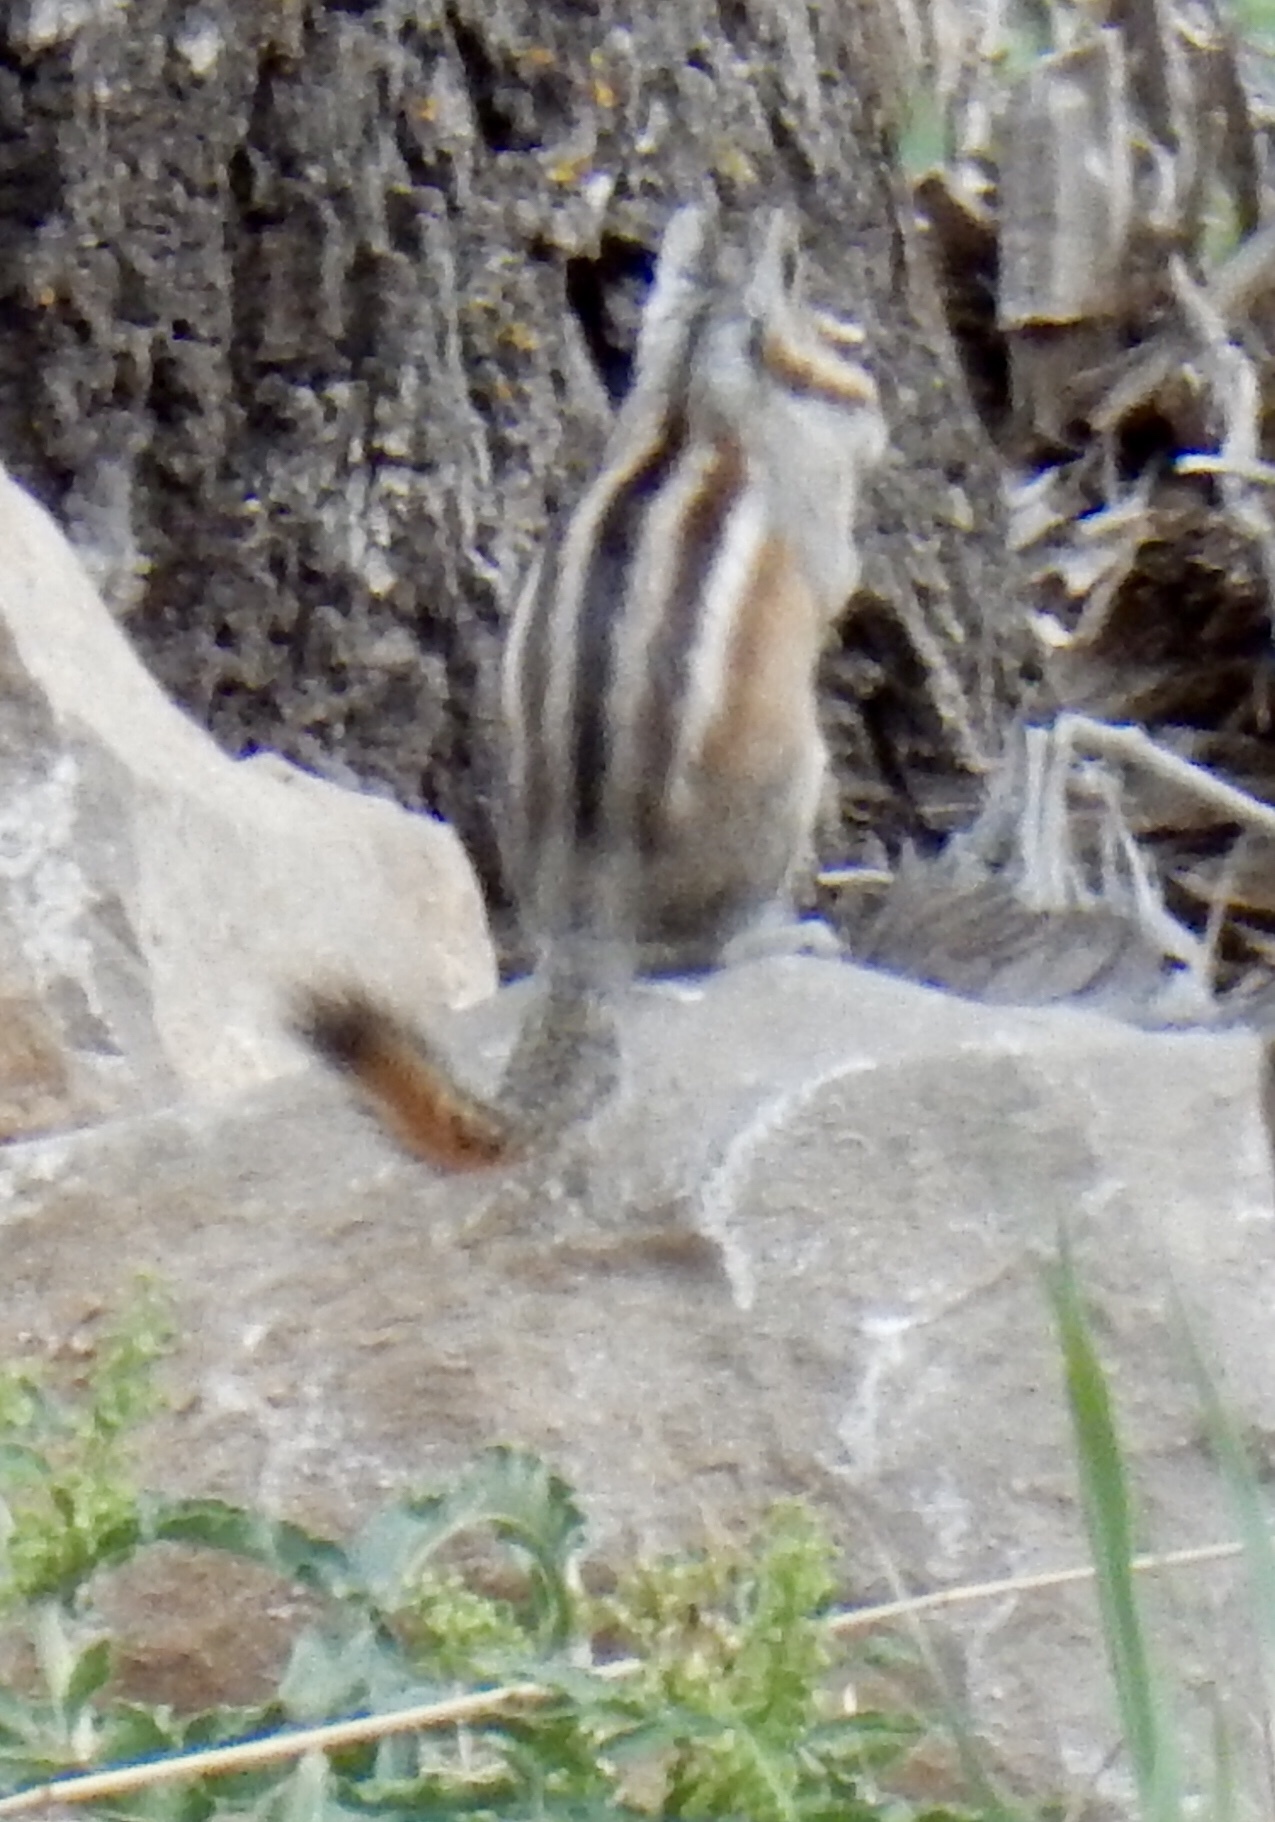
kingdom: Animalia
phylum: Chordata
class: Mammalia
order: Rodentia
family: Sciuridae
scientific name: Sciuridae
